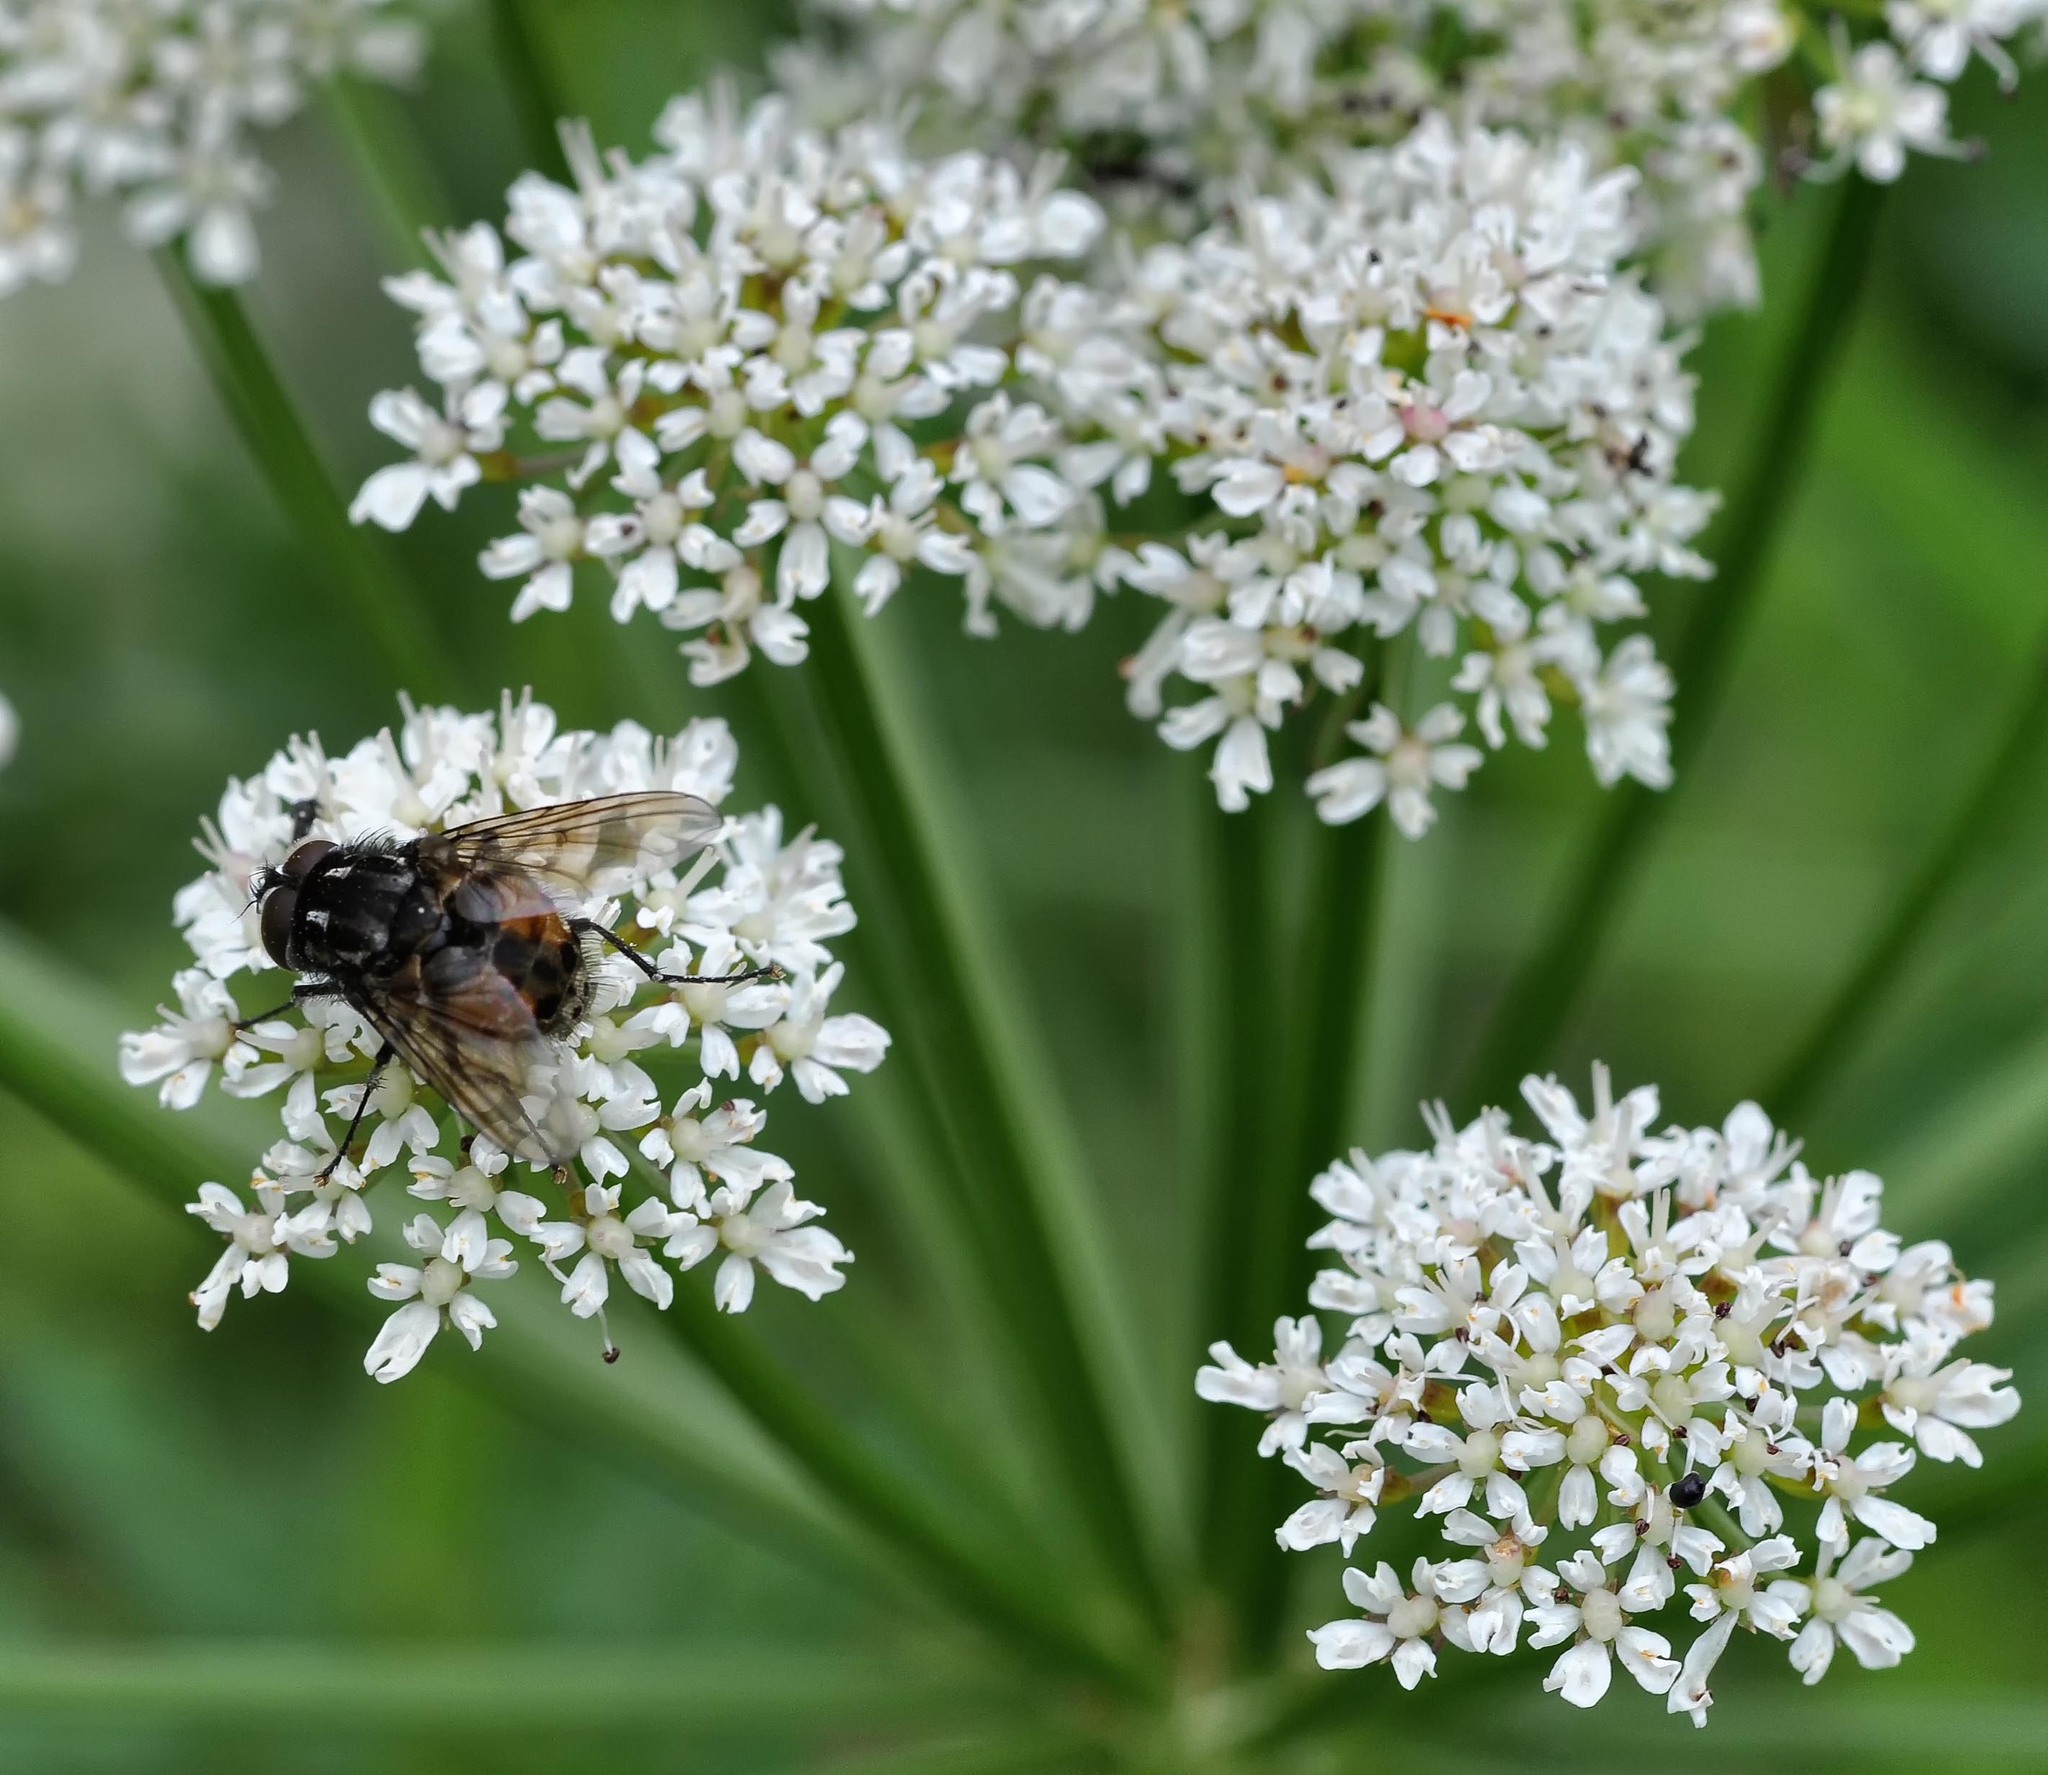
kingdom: Animalia
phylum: Arthropoda
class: Insecta
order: Diptera
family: Muscidae
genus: Graphomya
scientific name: Graphomya maculata
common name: Muscid fly
